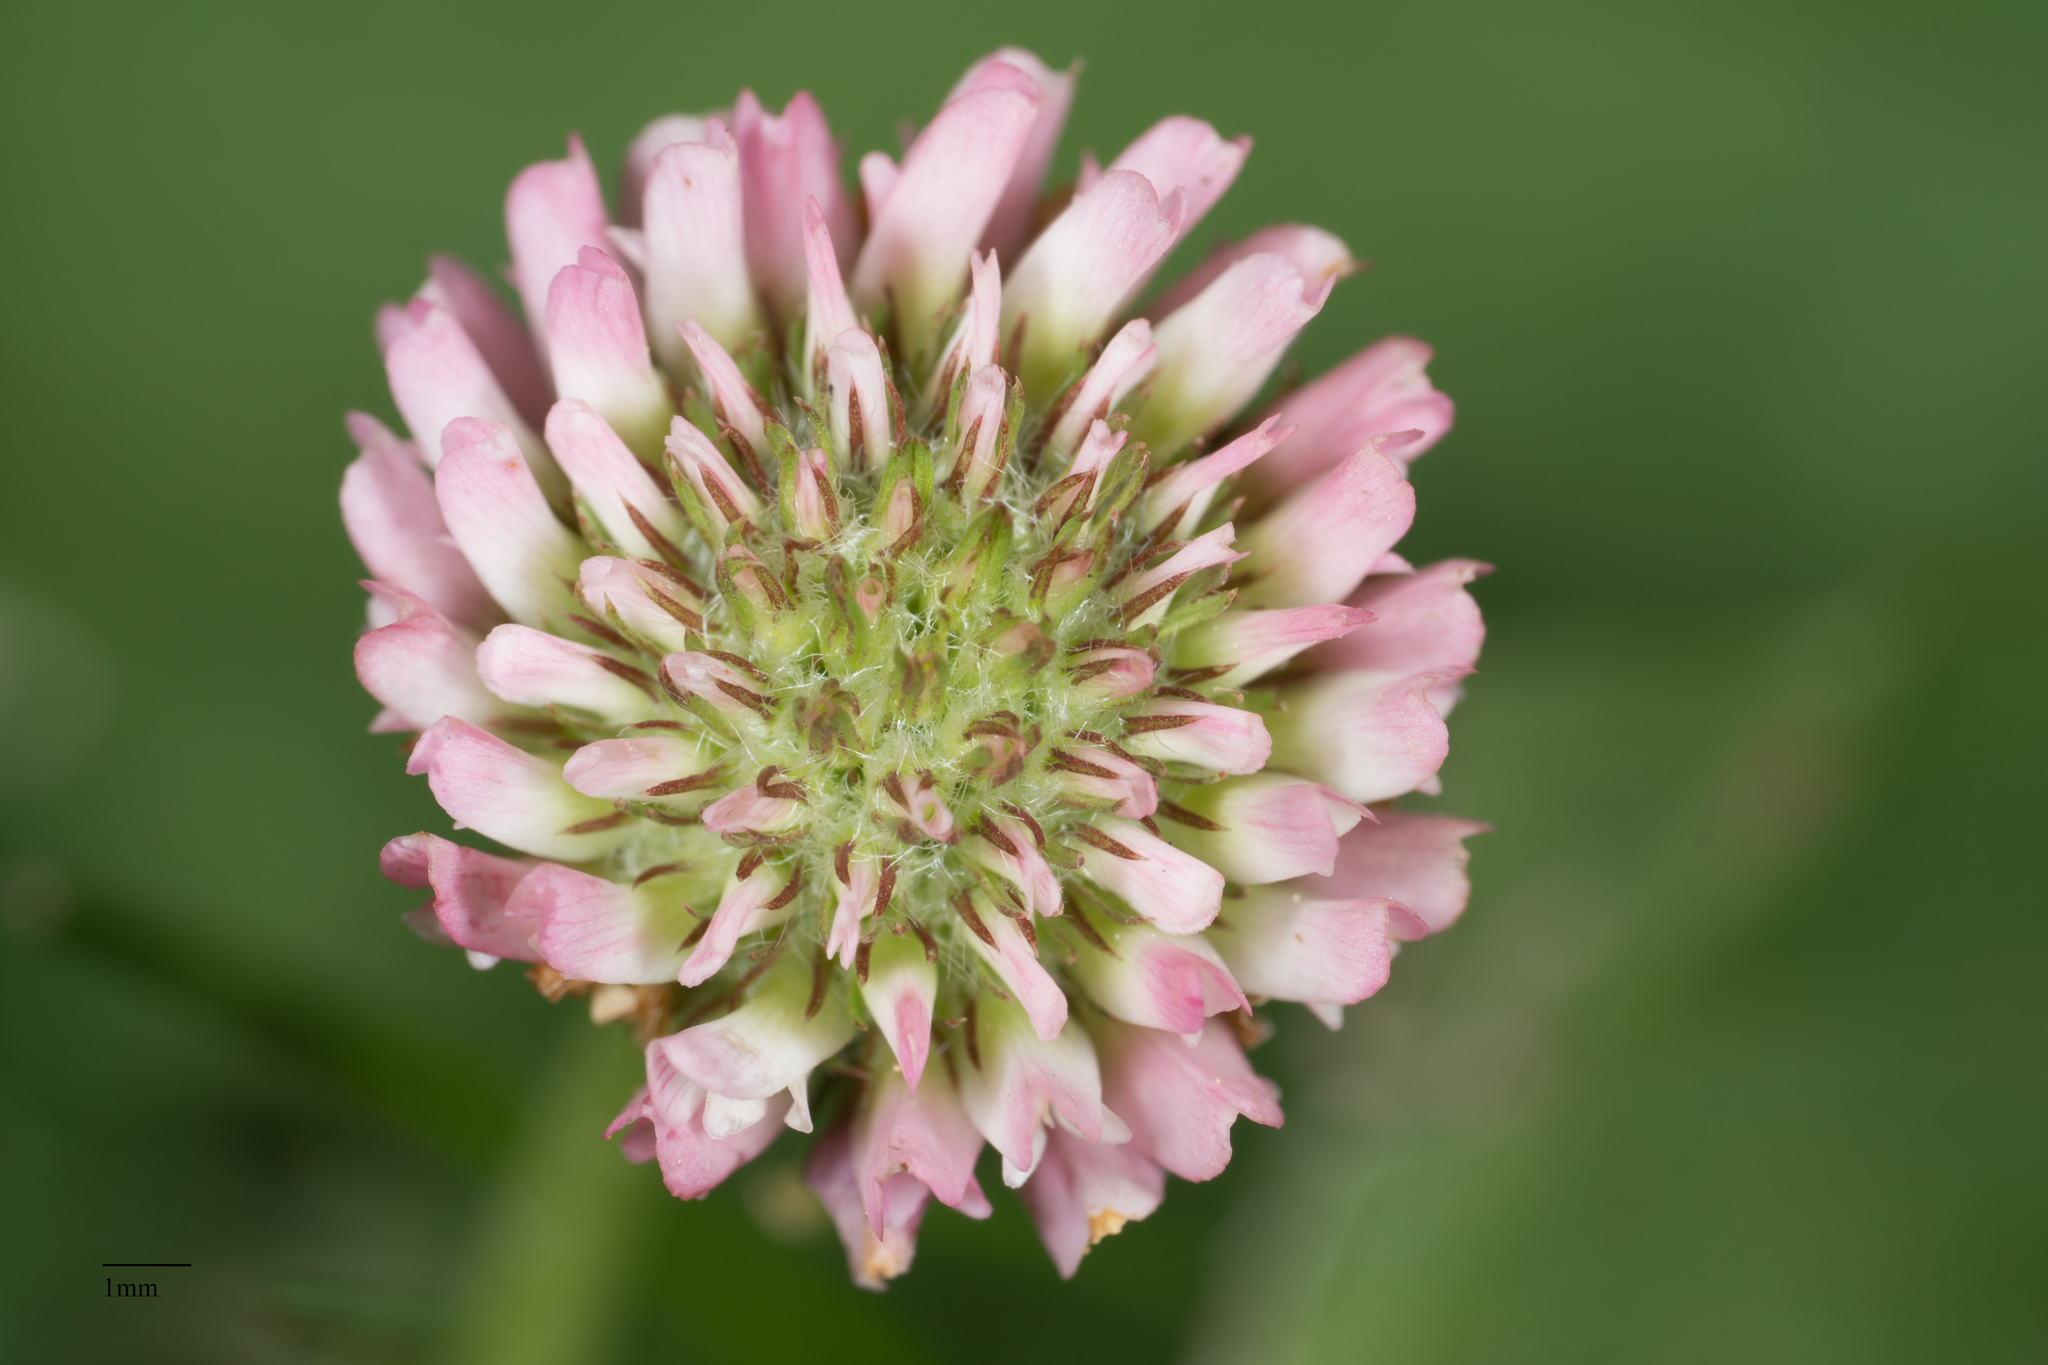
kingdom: Plantae
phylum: Tracheophyta
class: Magnoliopsida
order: Fabales
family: Fabaceae
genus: Trifolium
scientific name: Trifolium fragiferum
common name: Strawberry clover
